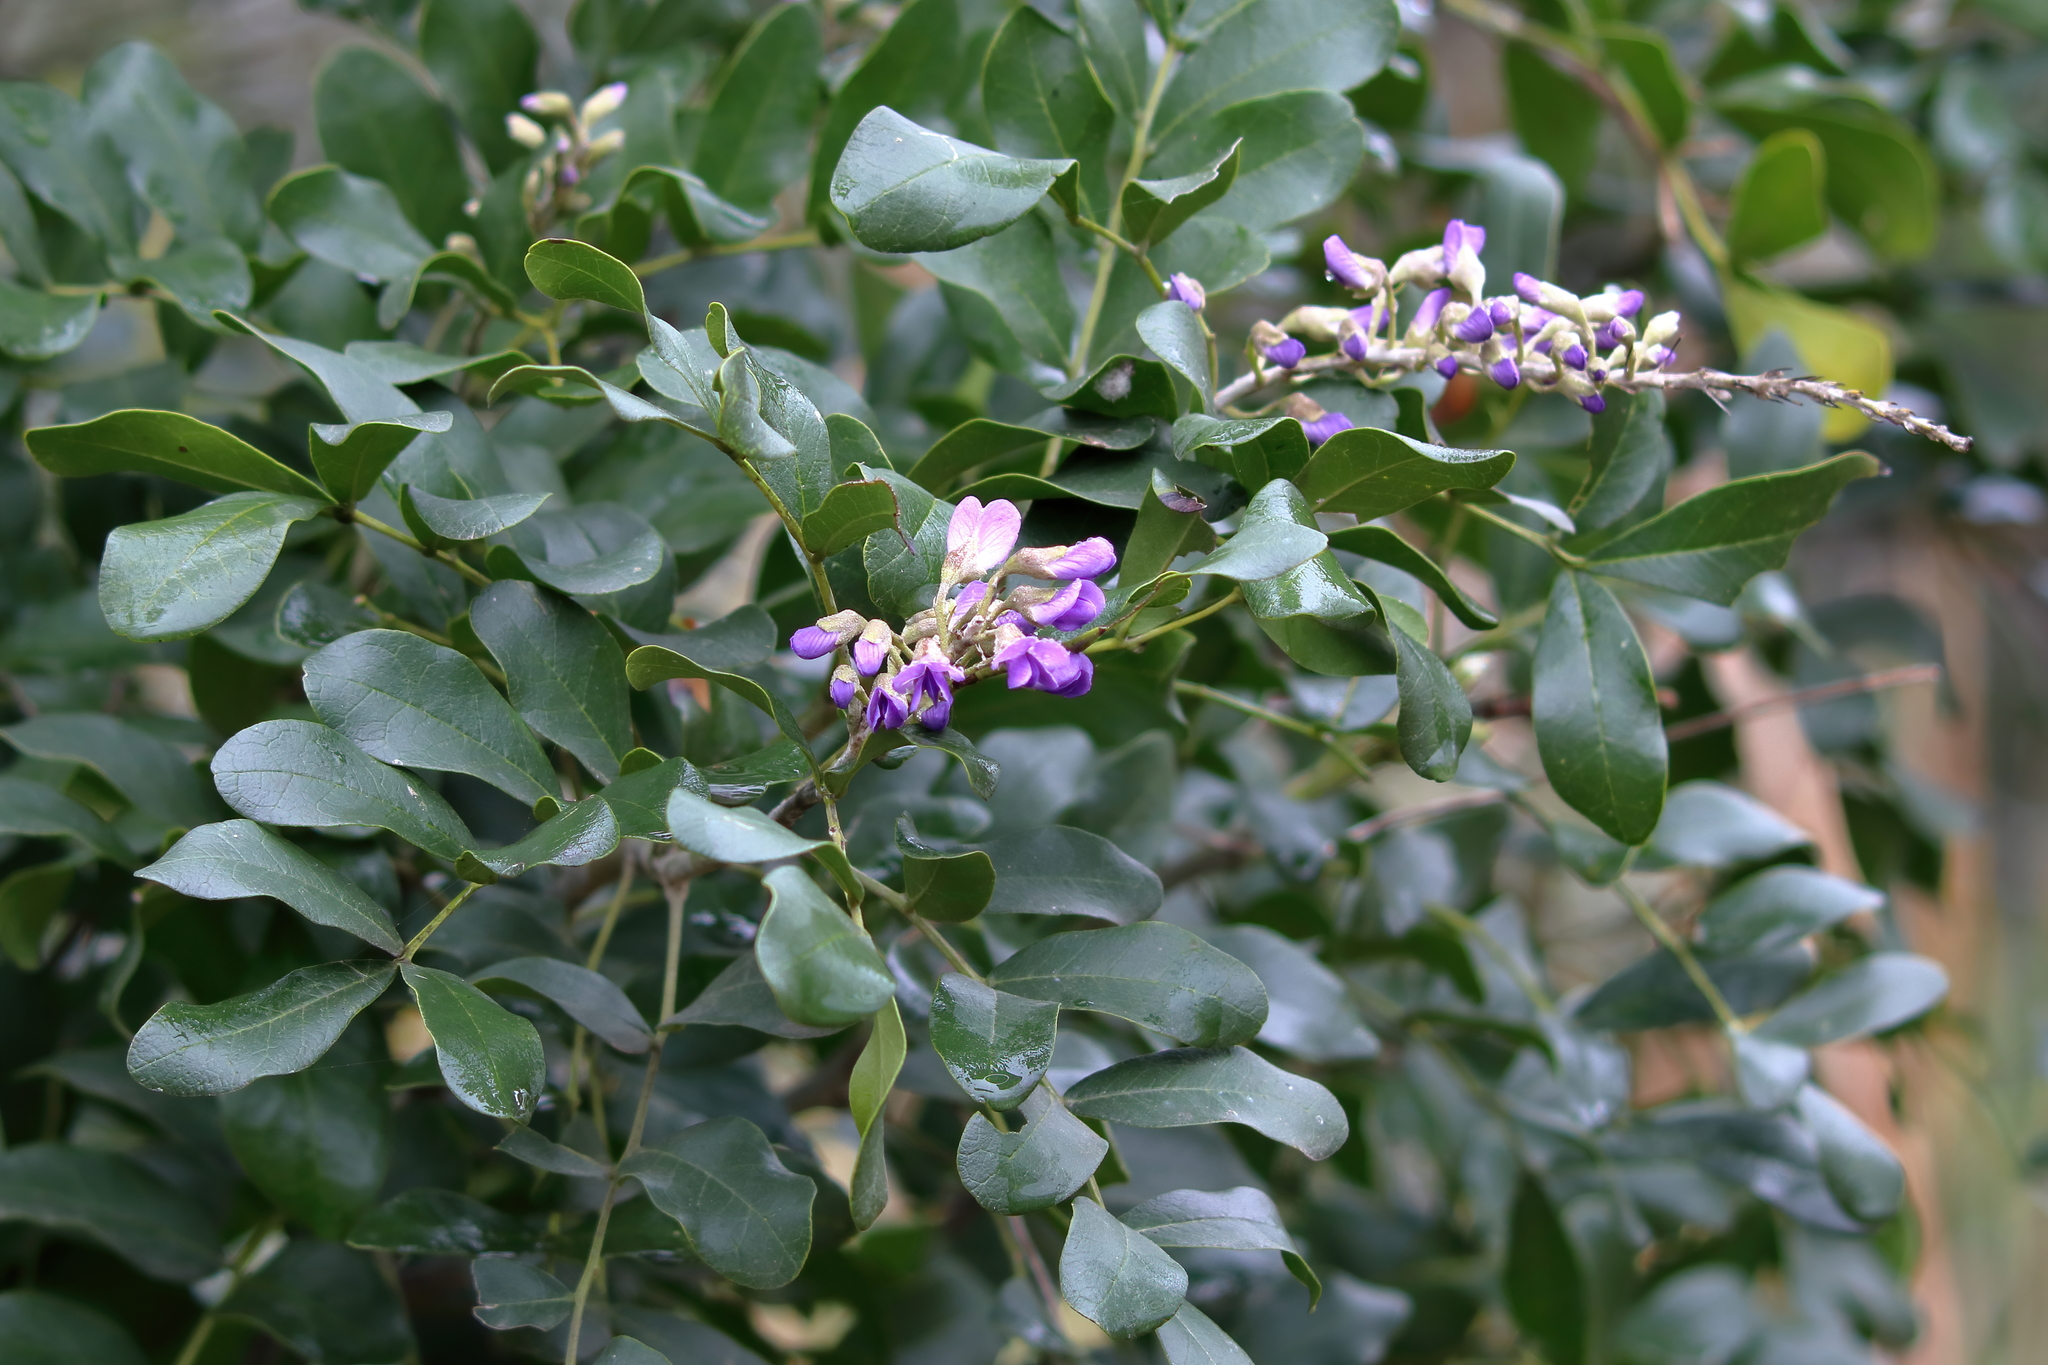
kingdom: Plantae
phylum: Tracheophyta
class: Magnoliopsida
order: Fabales
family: Fabaceae
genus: Dermatophyllum
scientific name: Dermatophyllum secundiflorum
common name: Texas-mountain-laurel
